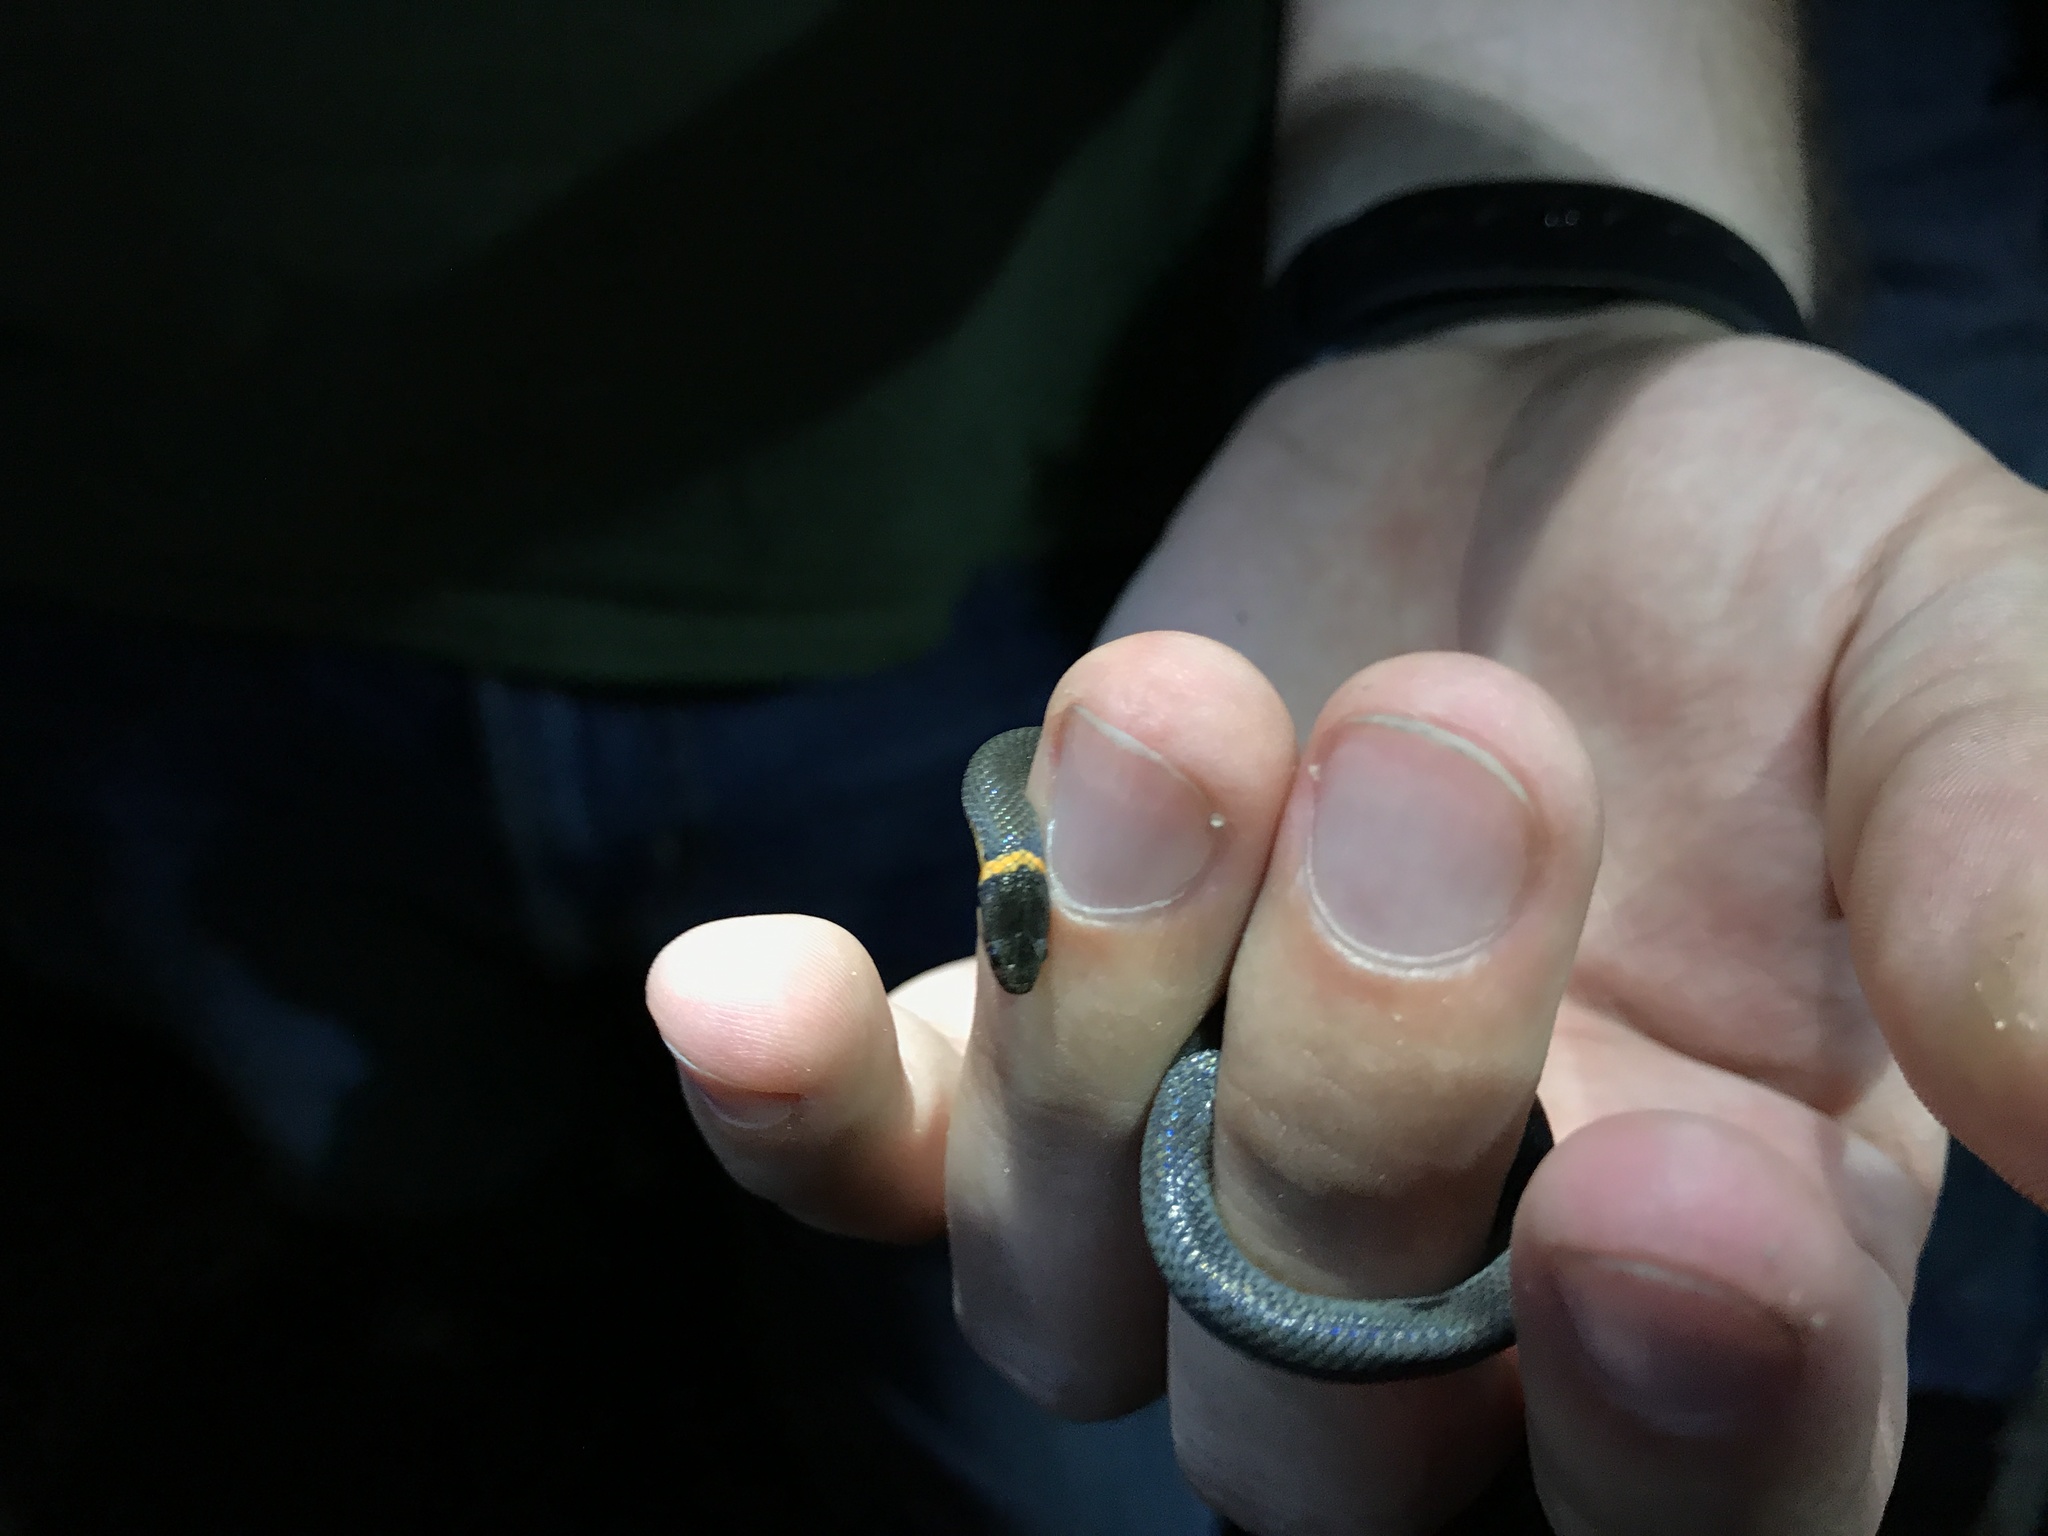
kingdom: Animalia
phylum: Chordata
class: Squamata
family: Colubridae
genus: Diadophis
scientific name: Diadophis punctatus
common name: Ringneck snake
